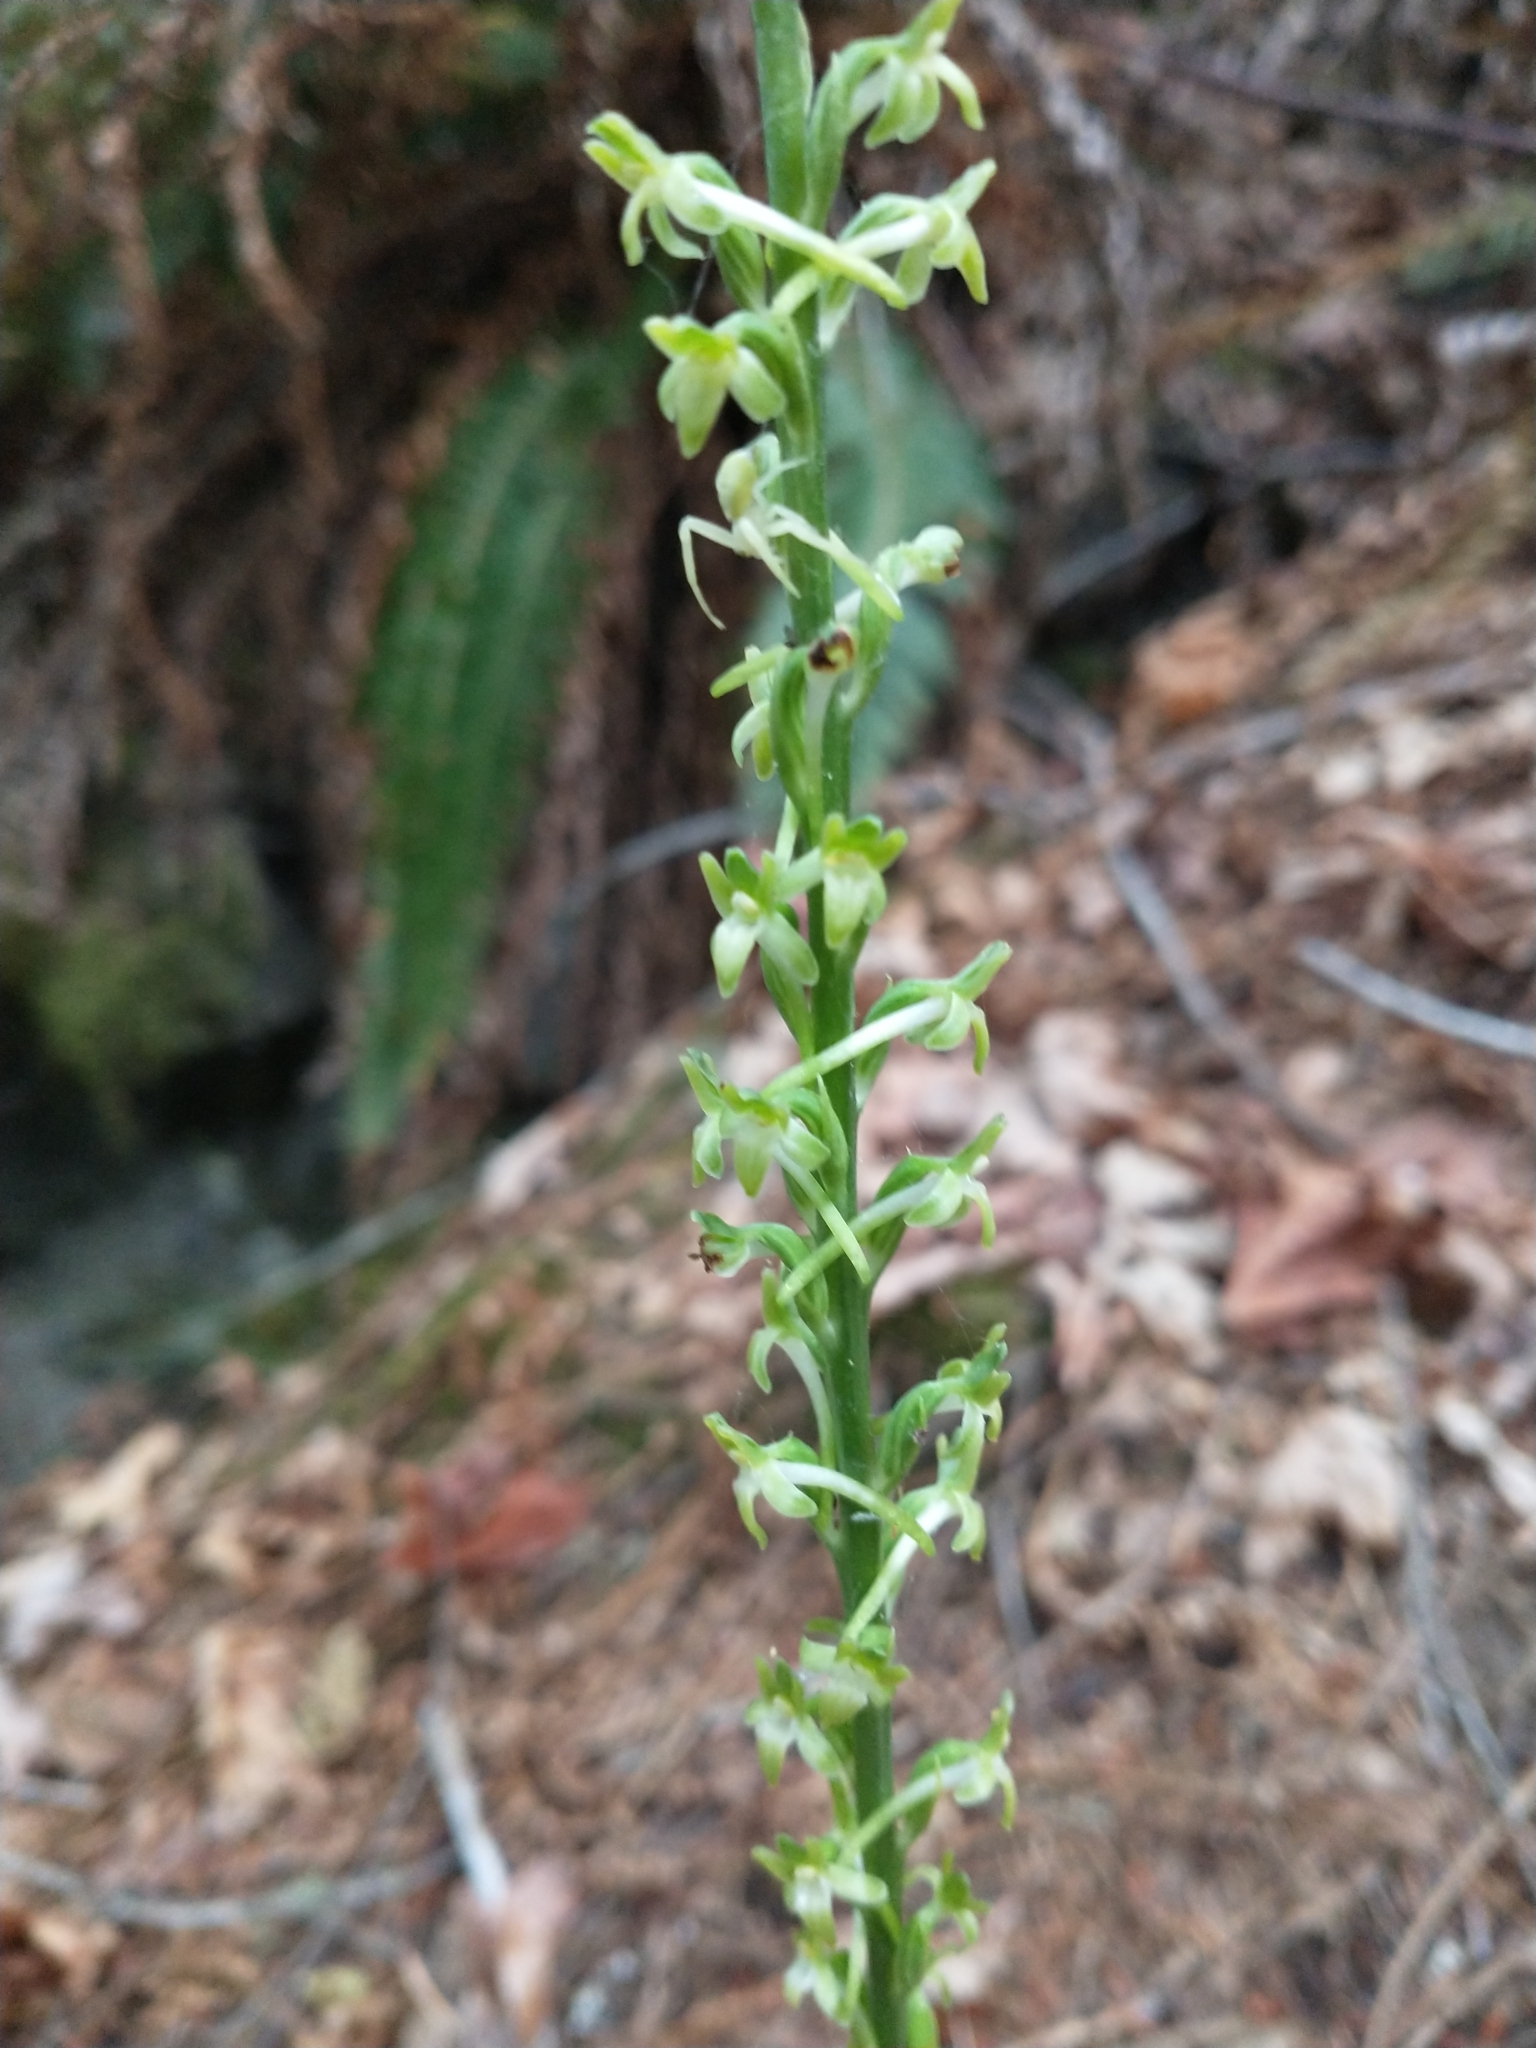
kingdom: Plantae
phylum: Tracheophyta
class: Liliopsida
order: Asparagales
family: Orchidaceae
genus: Platanthera
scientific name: Platanthera elongata
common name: Dense-flowered rein orchid
